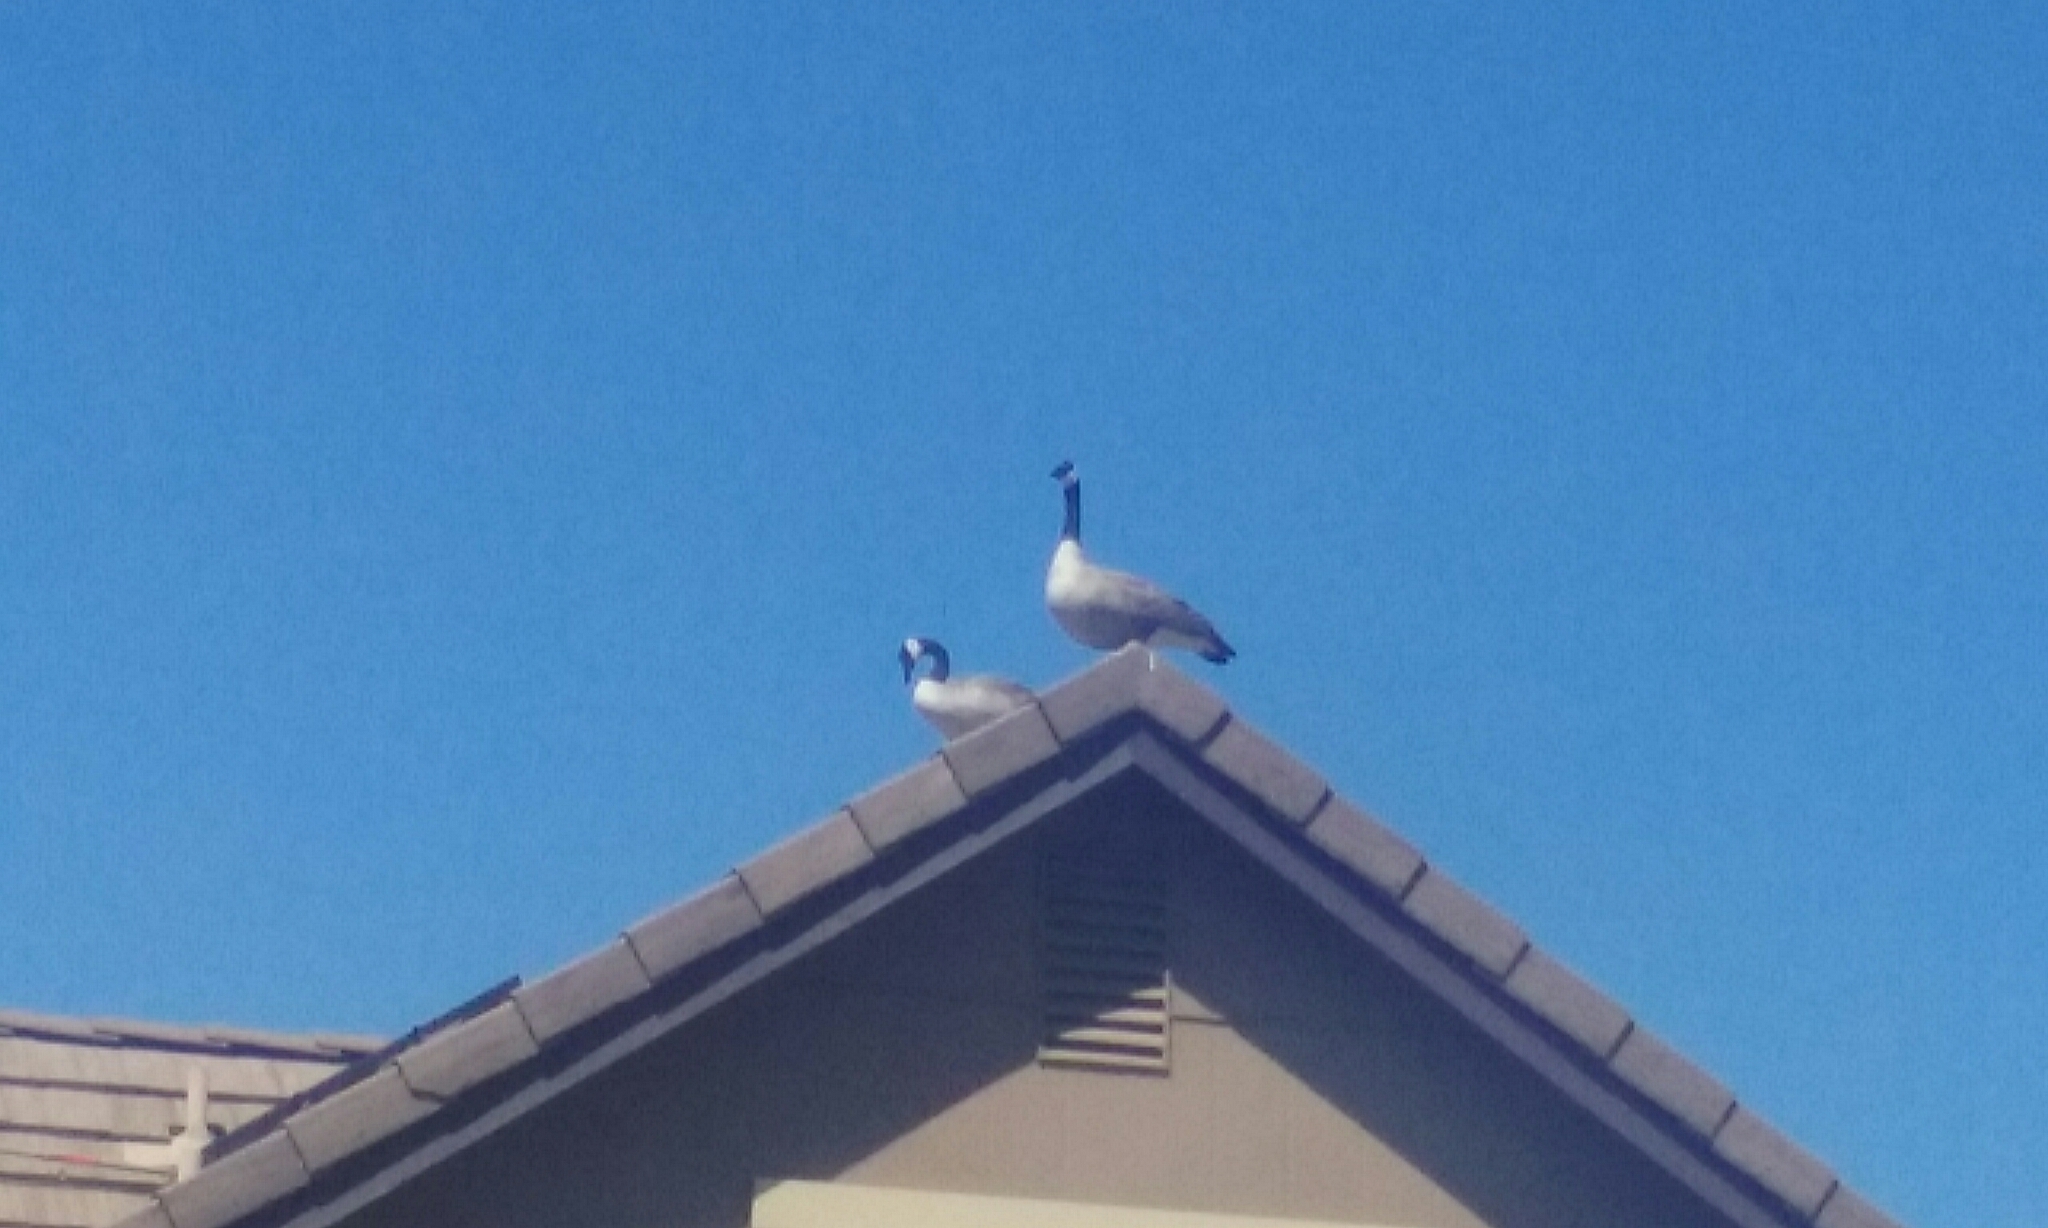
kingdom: Animalia
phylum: Chordata
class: Aves
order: Anseriformes
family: Anatidae
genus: Branta
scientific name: Branta canadensis
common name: Canada goose
